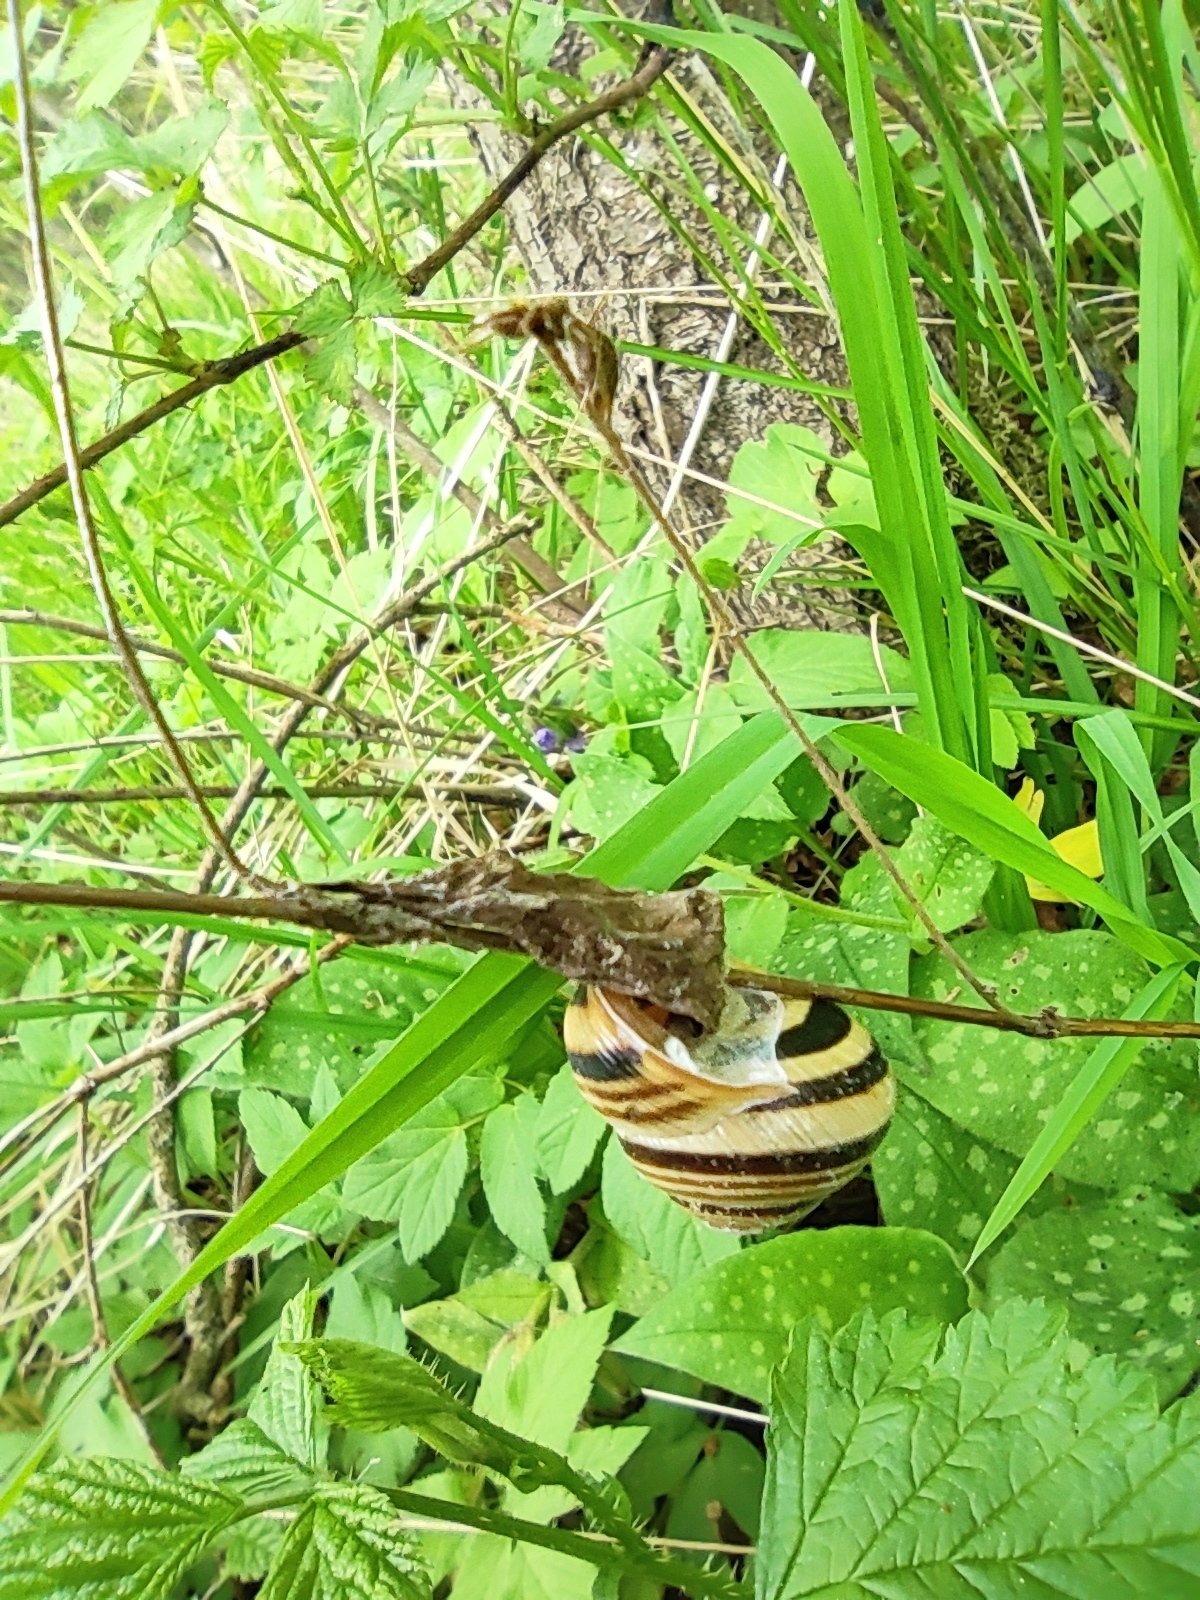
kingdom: Animalia
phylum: Mollusca
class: Gastropoda
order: Stylommatophora
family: Helicidae
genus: Caucasotachea
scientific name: Caucasotachea vindobonensis
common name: European helicid land snail
